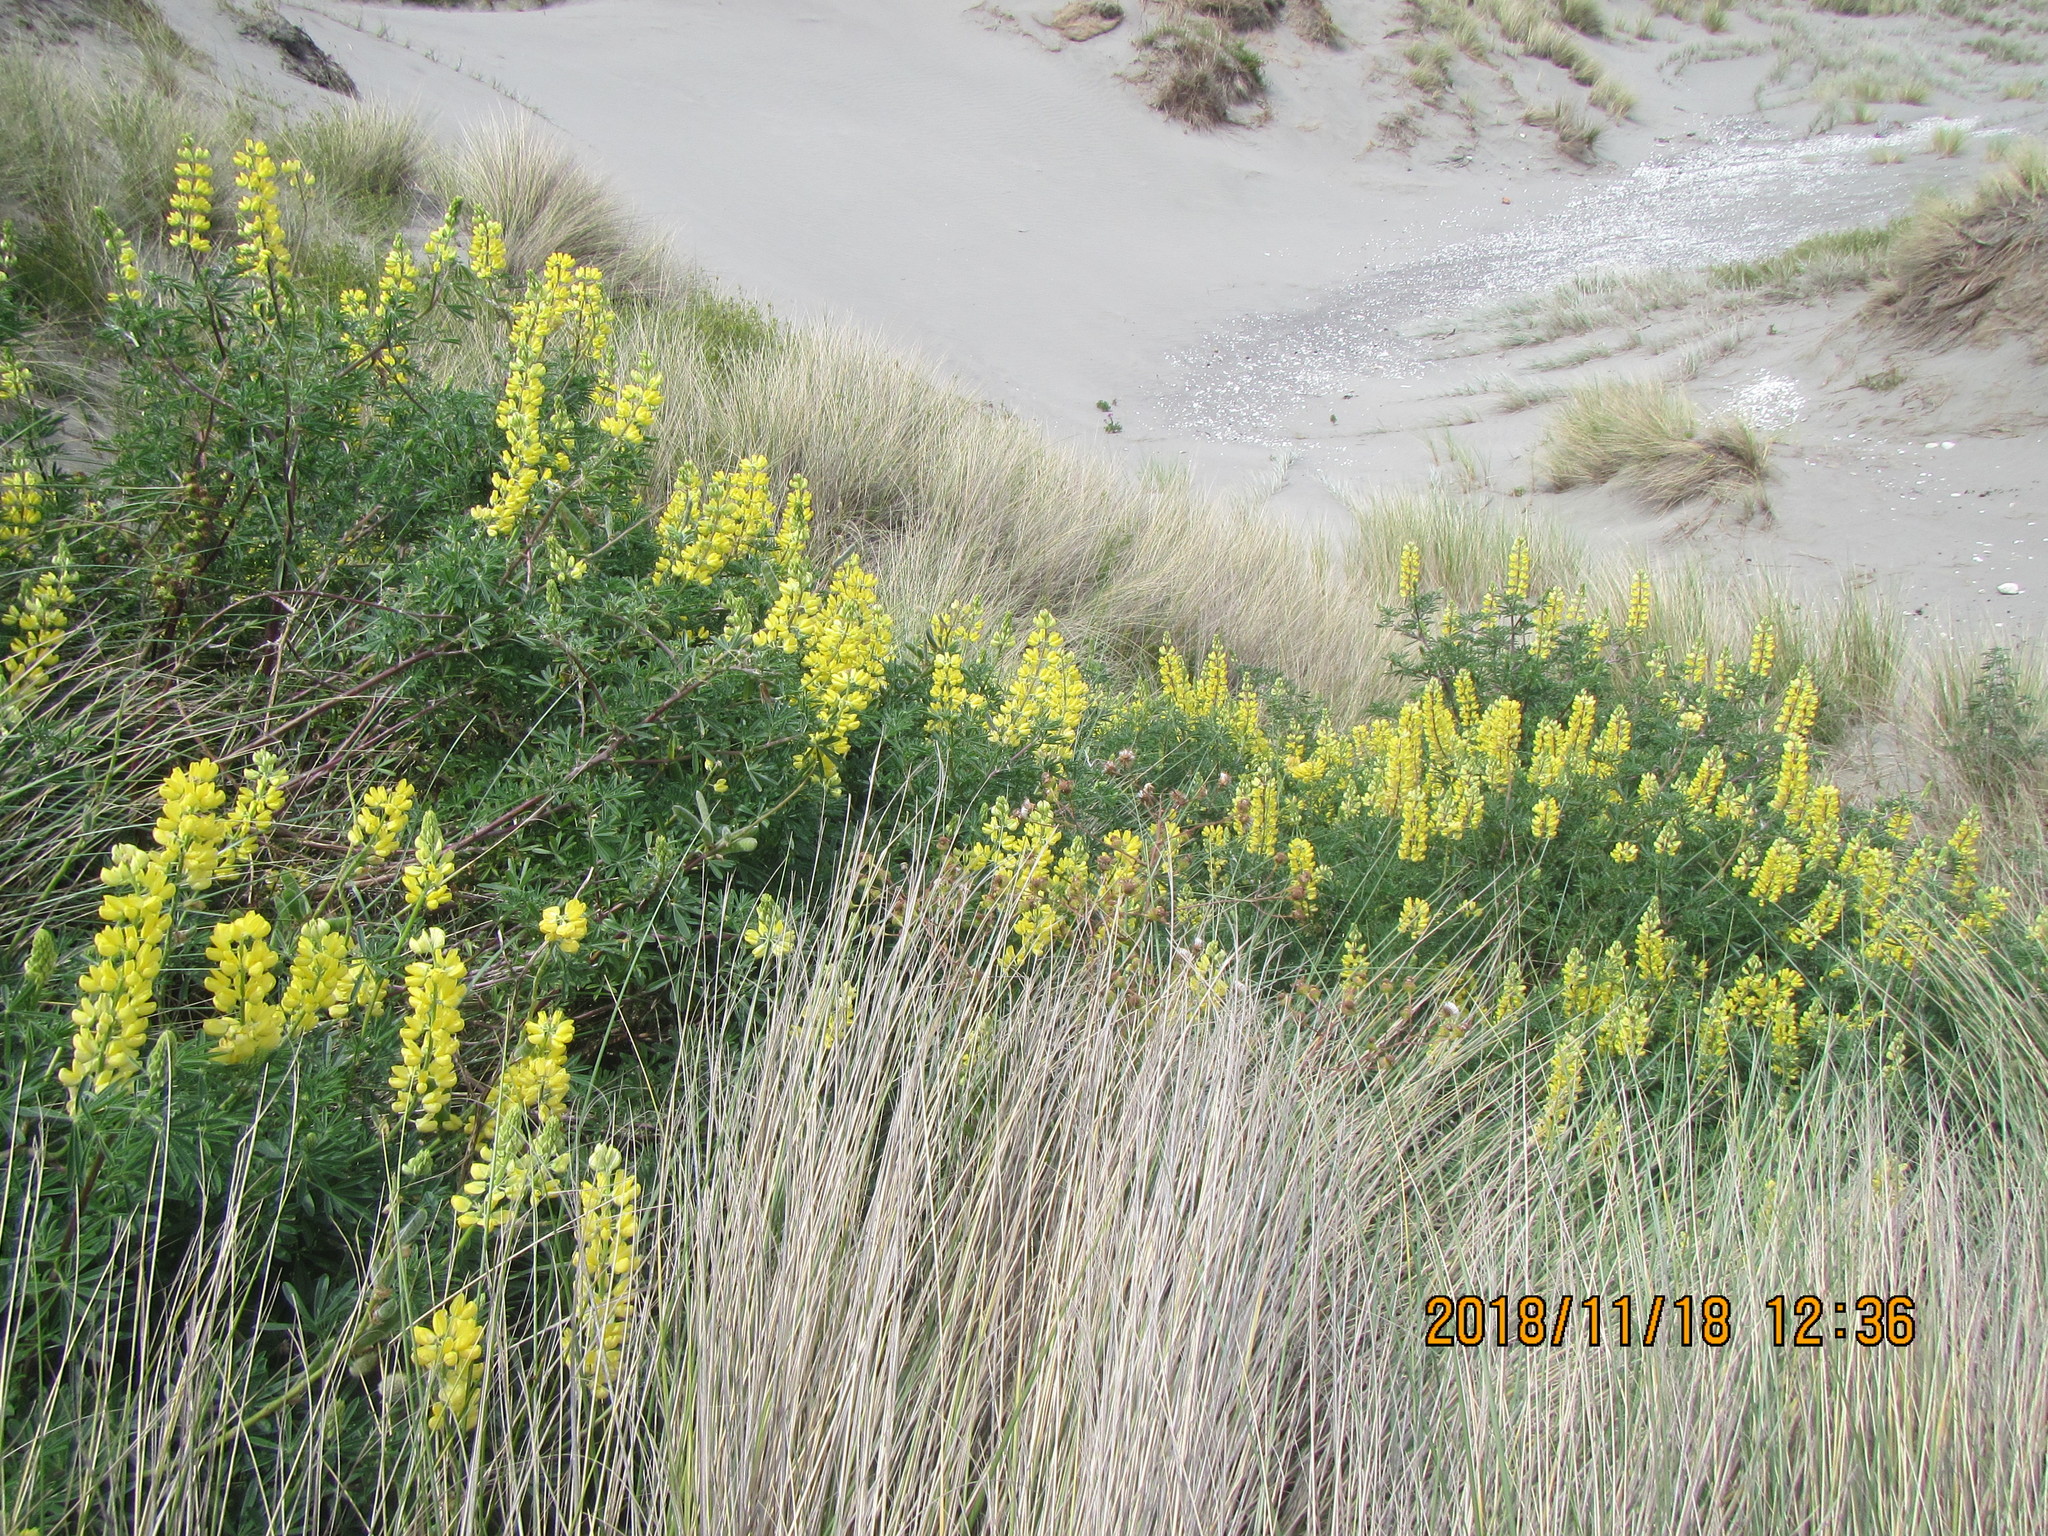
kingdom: Plantae
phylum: Tracheophyta
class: Magnoliopsida
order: Fabales
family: Fabaceae
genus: Lupinus
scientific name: Lupinus arboreus
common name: Yellow bush lupine
